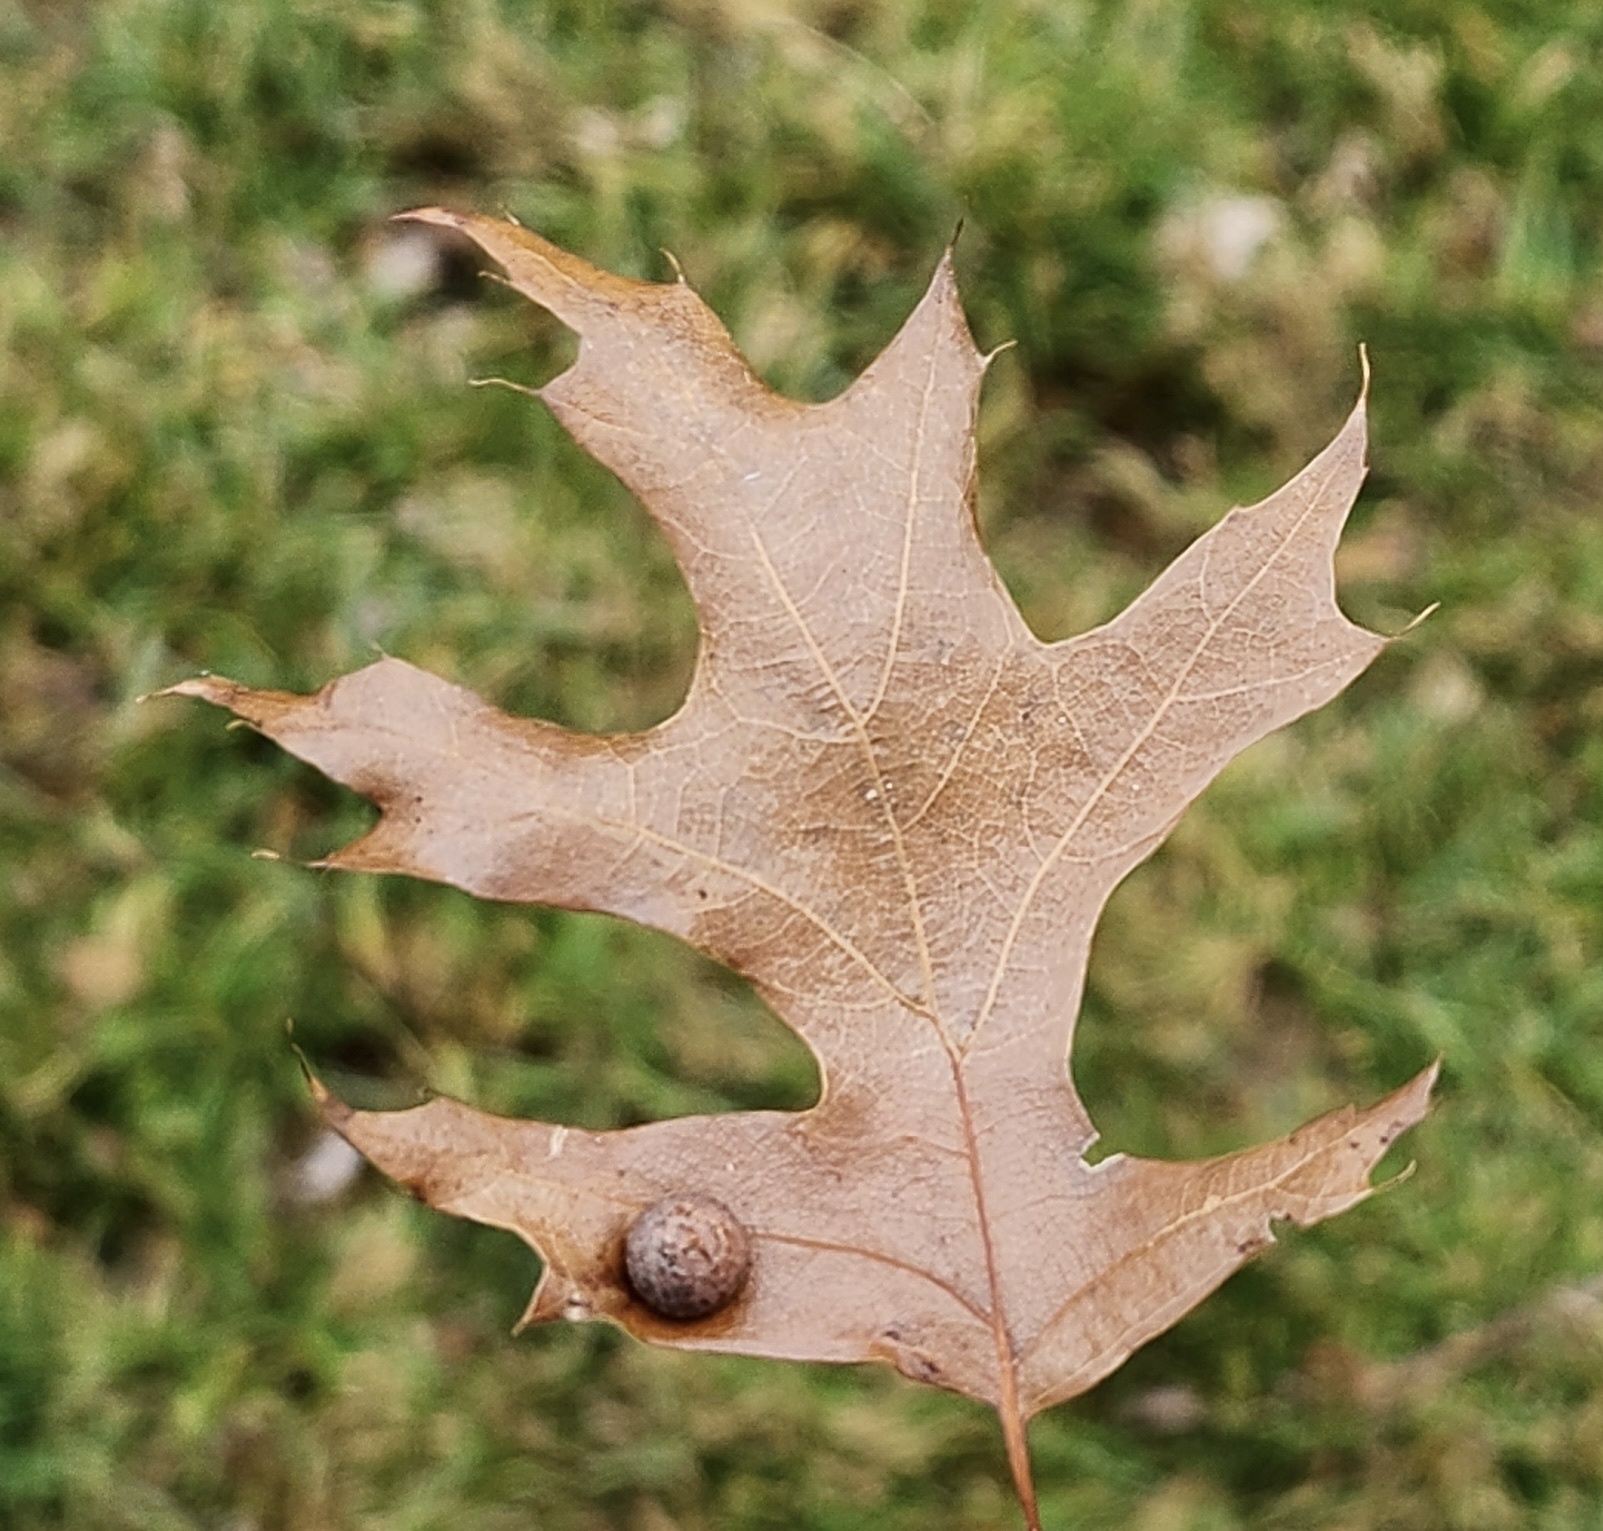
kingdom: Animalia
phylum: Arthropoda
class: Insecta
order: Diptera
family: Cecidomyiidae
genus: Polystepha
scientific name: Polystepha pilulae
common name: Oak leaf gall midge
